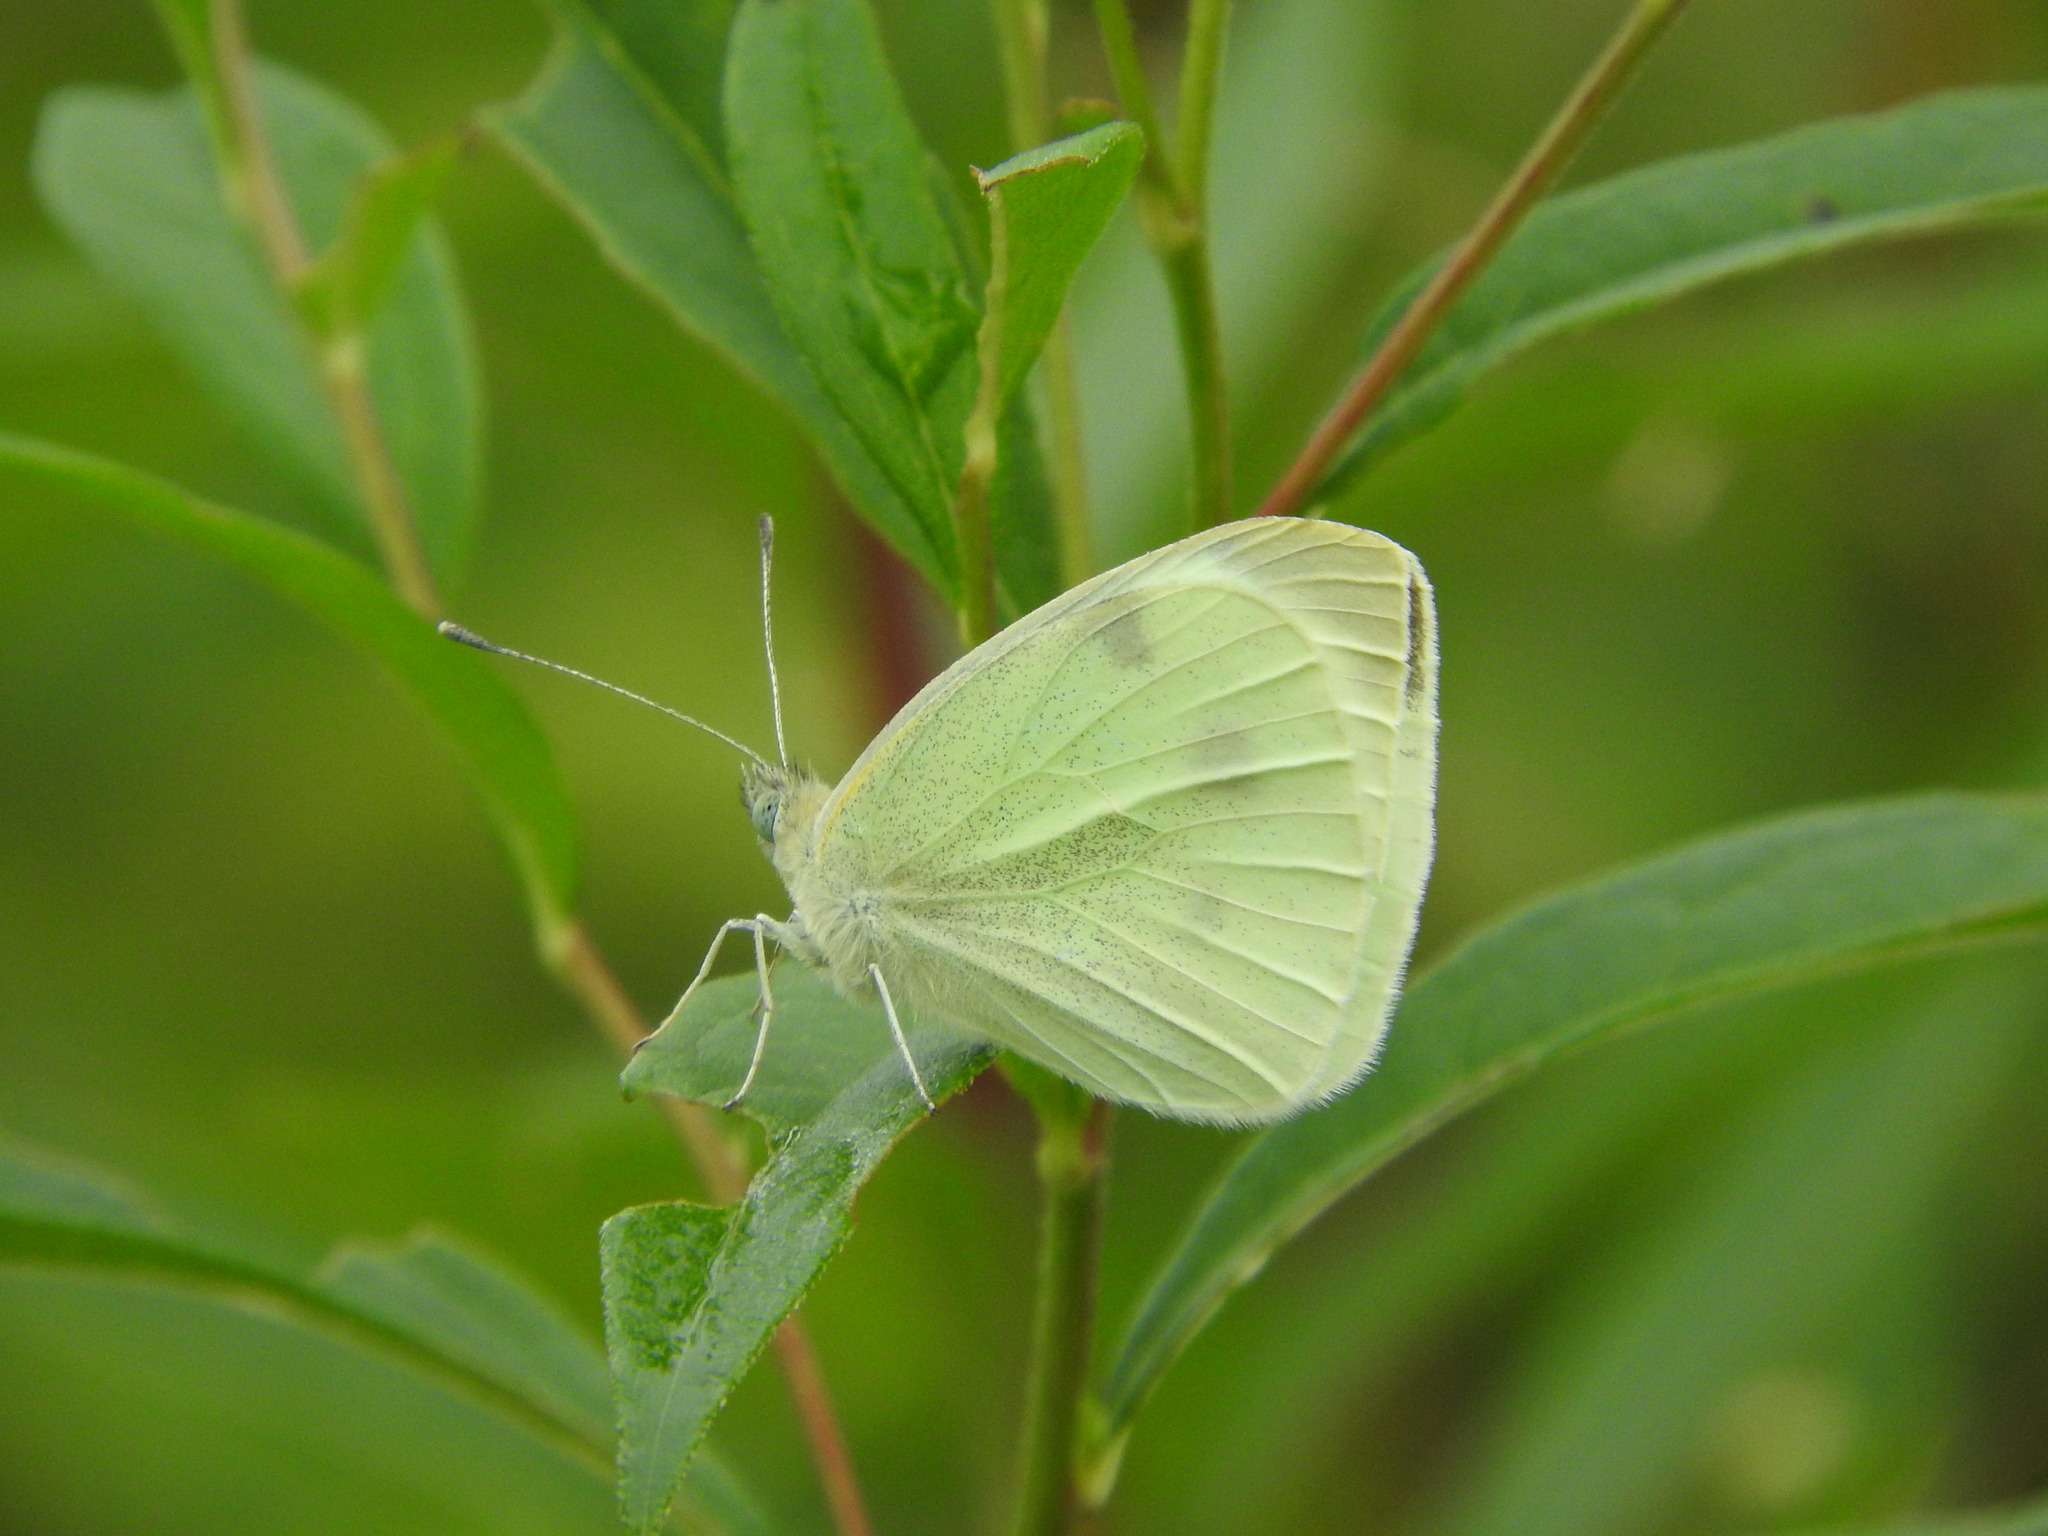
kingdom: Animalia
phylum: Arthropoda
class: Insecta
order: Lepidoptera
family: Pieridae
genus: Pieris
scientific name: Pieris rapae
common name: Small white
